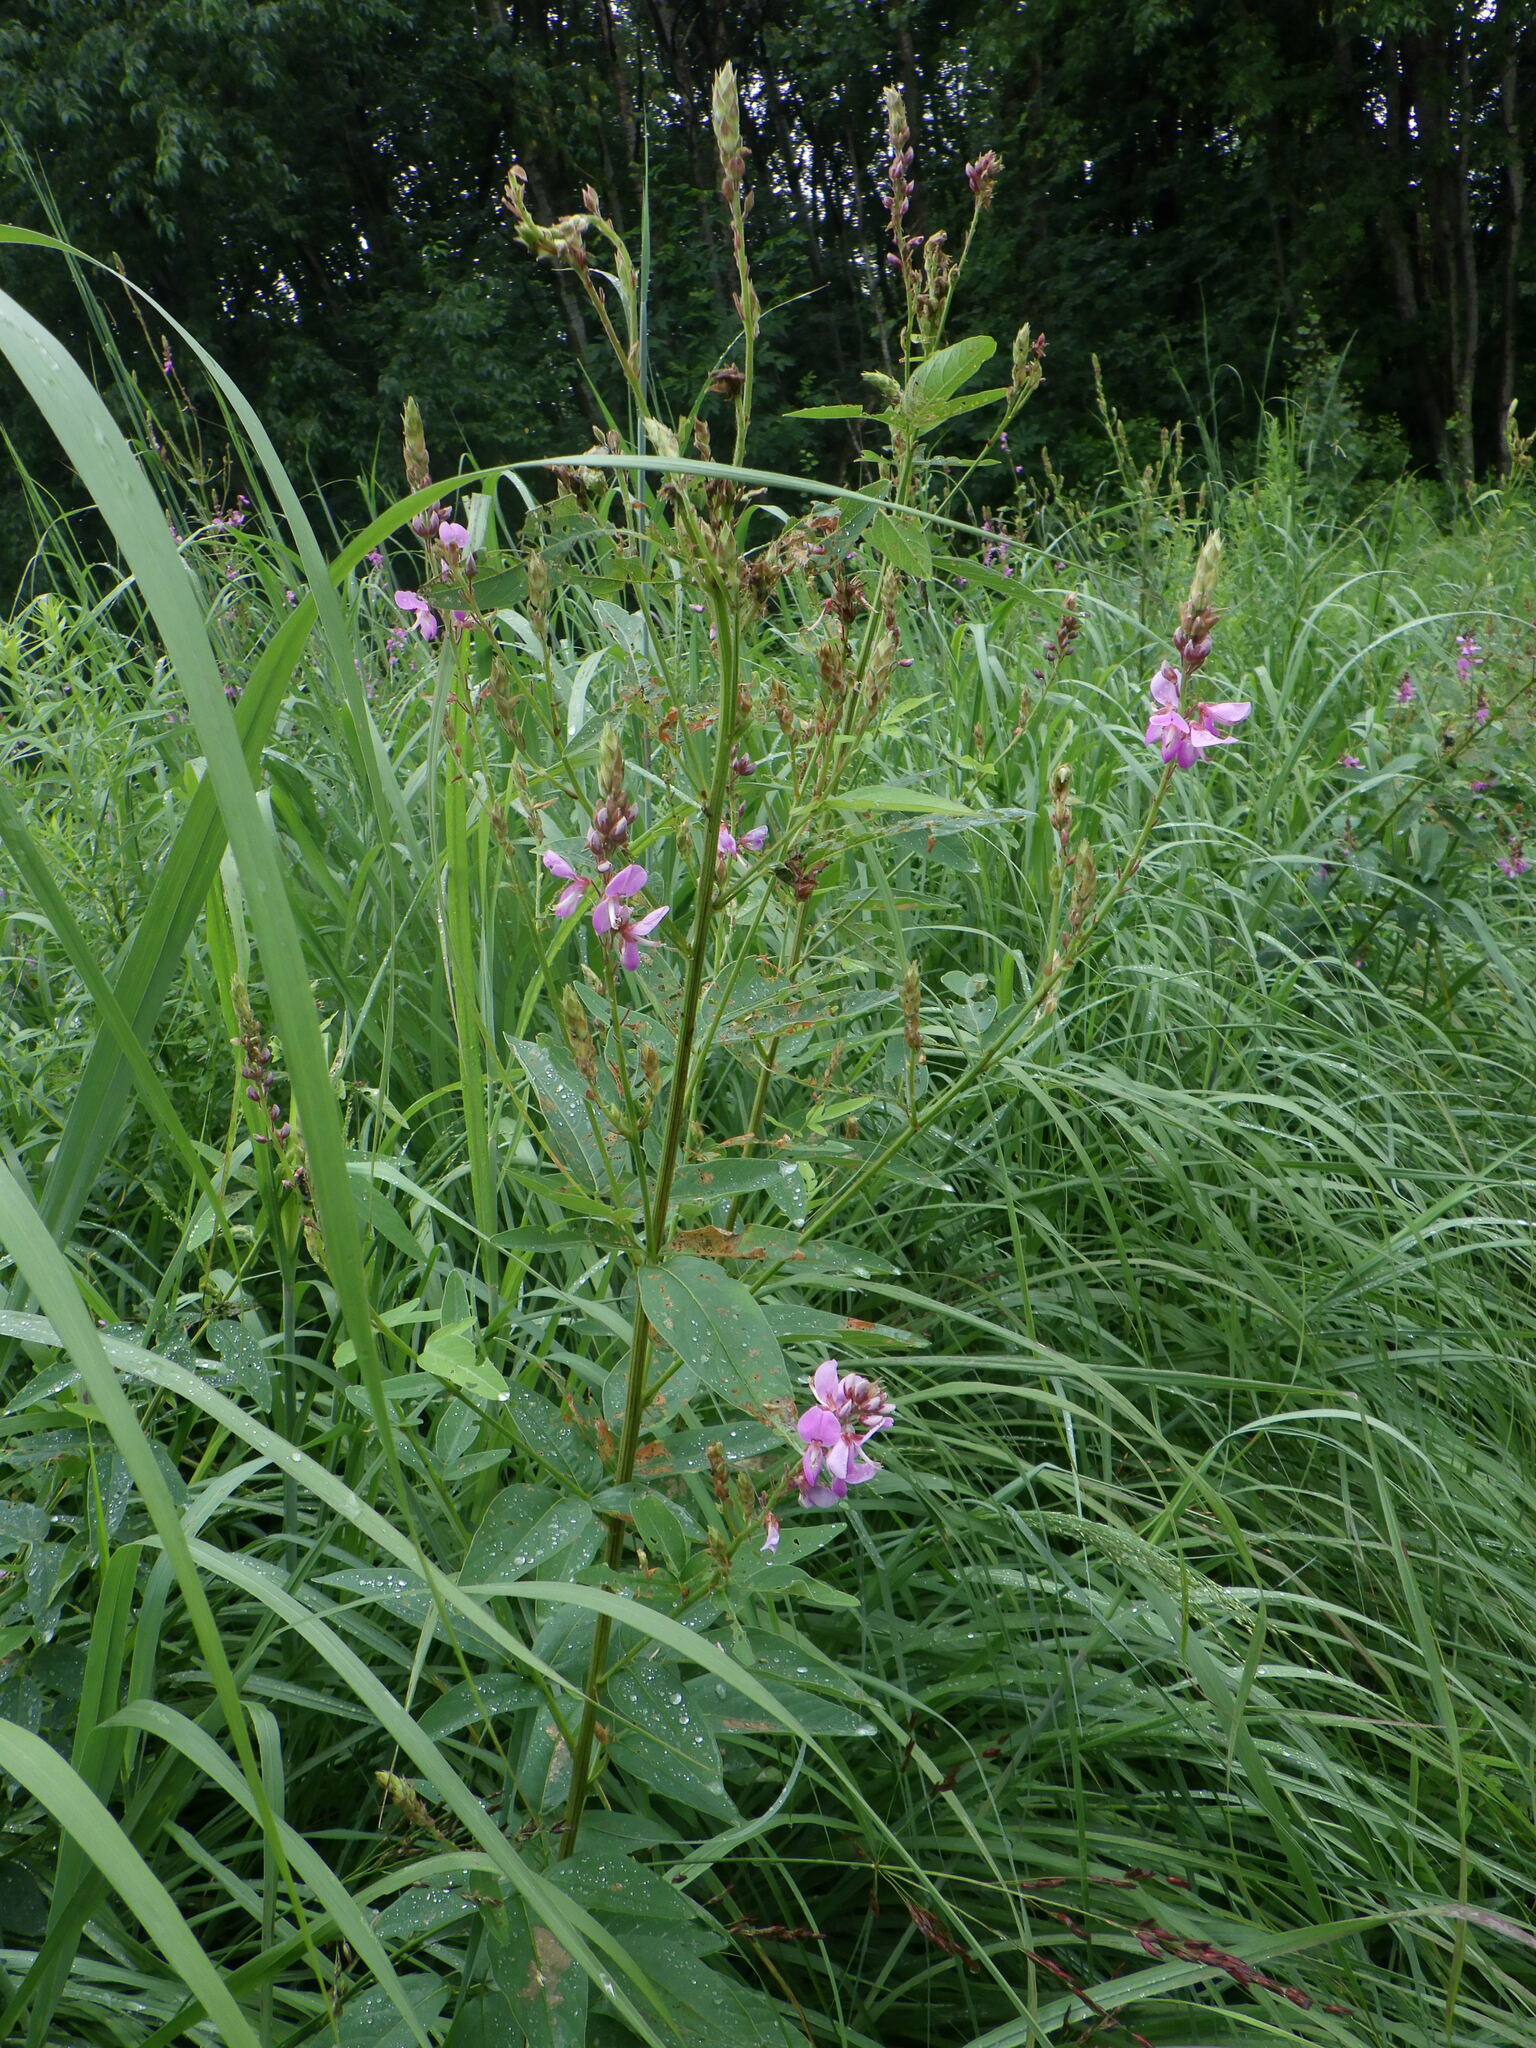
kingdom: Plantae
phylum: Tracheophyta
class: Magnoliopsida
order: Fabales
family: Fabaceae
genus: Desmodium
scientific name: Desmodium canadense
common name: Canada tick-trefoil
